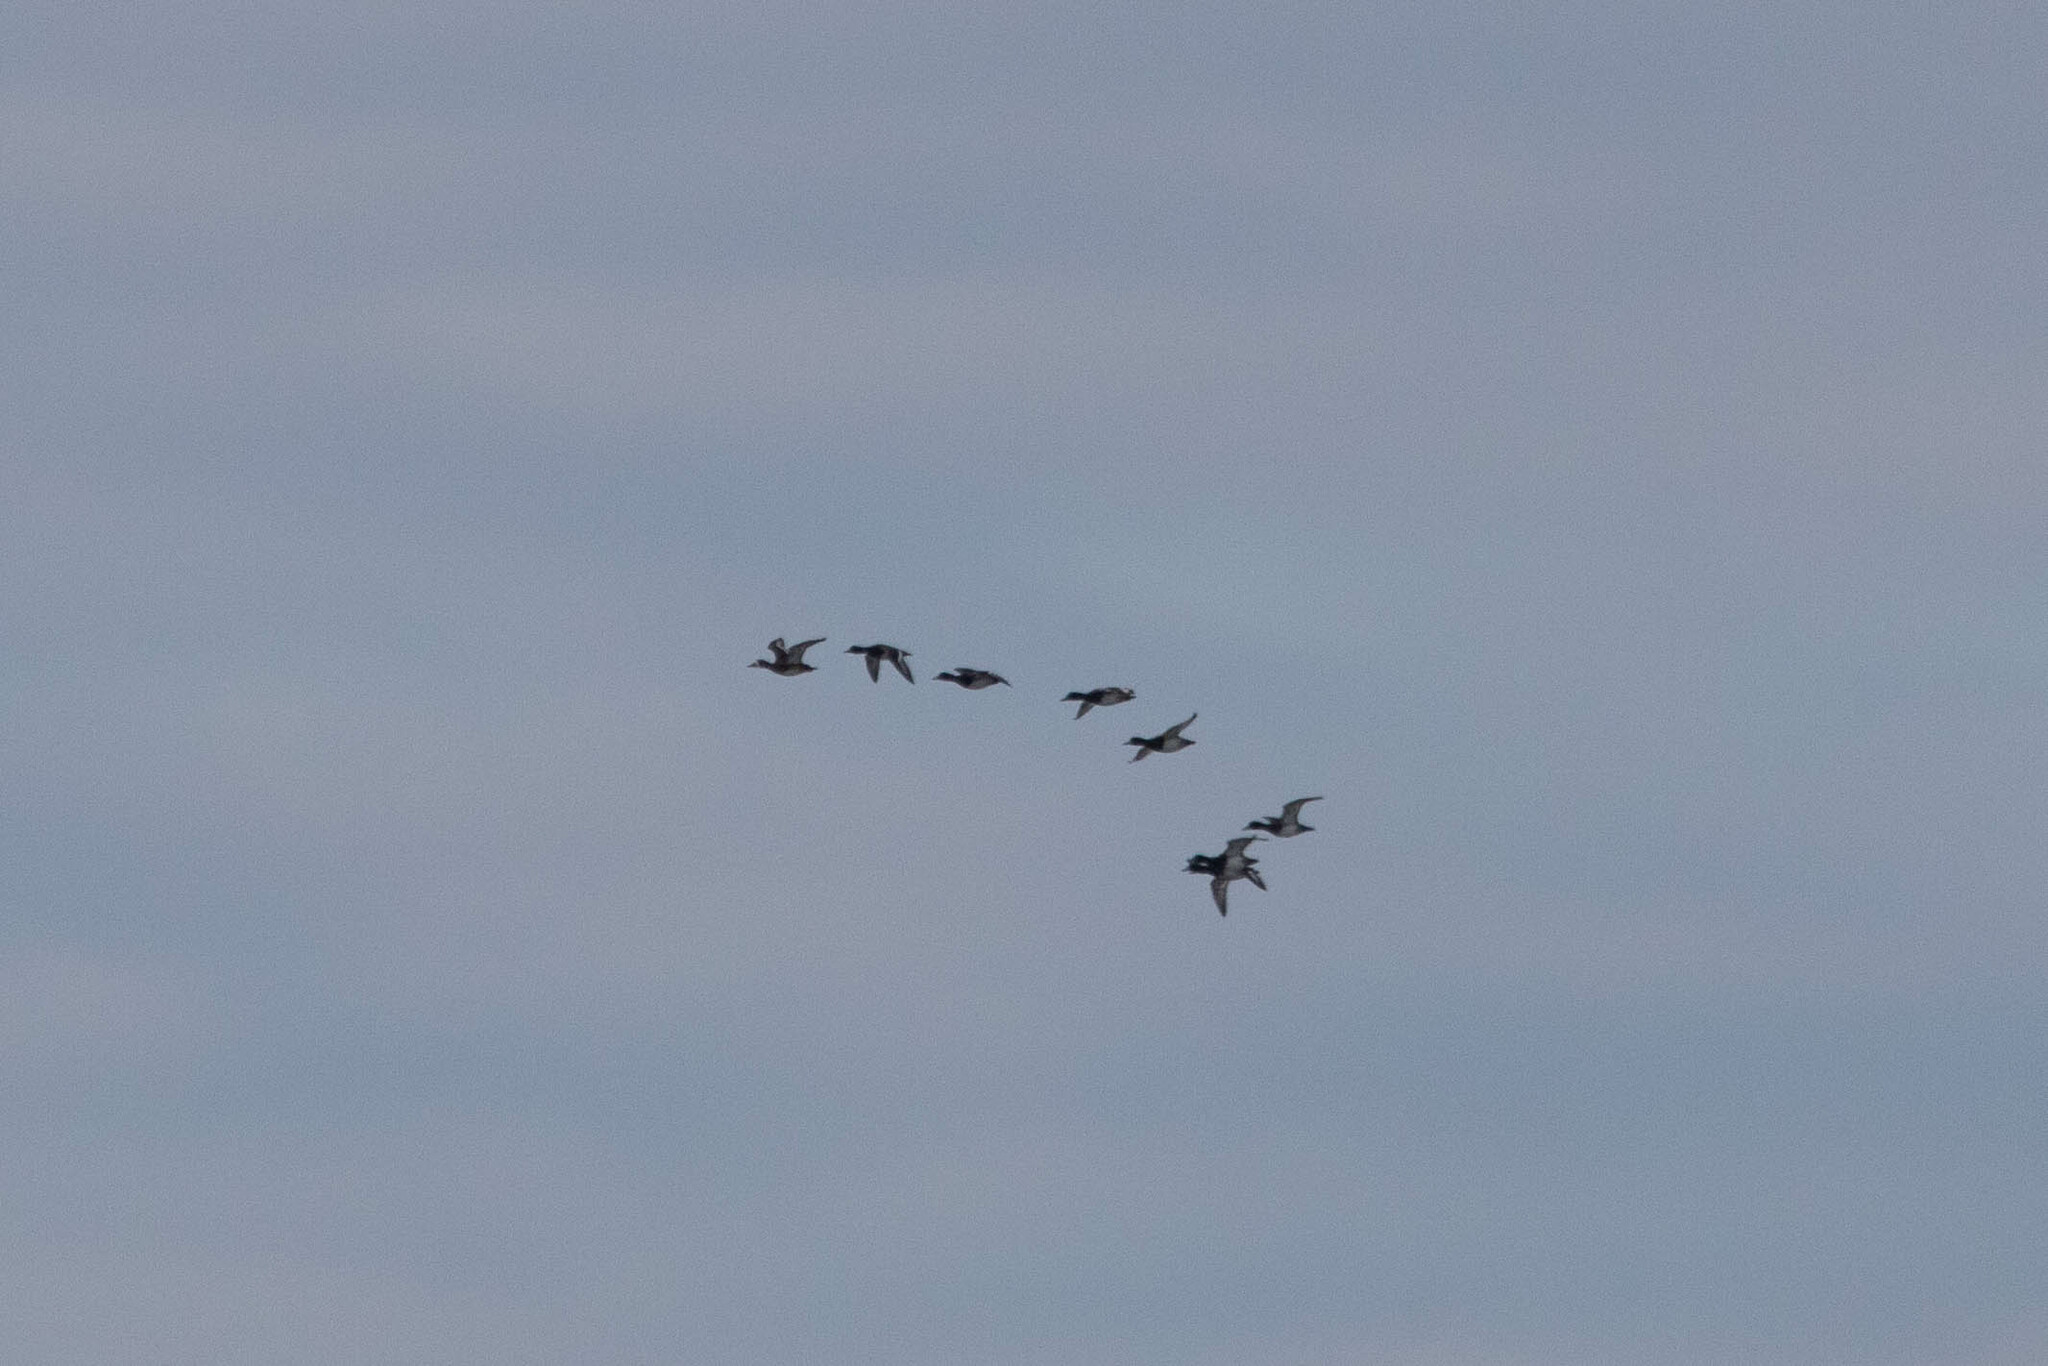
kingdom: Animalia
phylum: Chordata
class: Aves
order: Anseriformes
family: Anatidae
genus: Aythya
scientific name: Aythya marila
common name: Greater scaup
